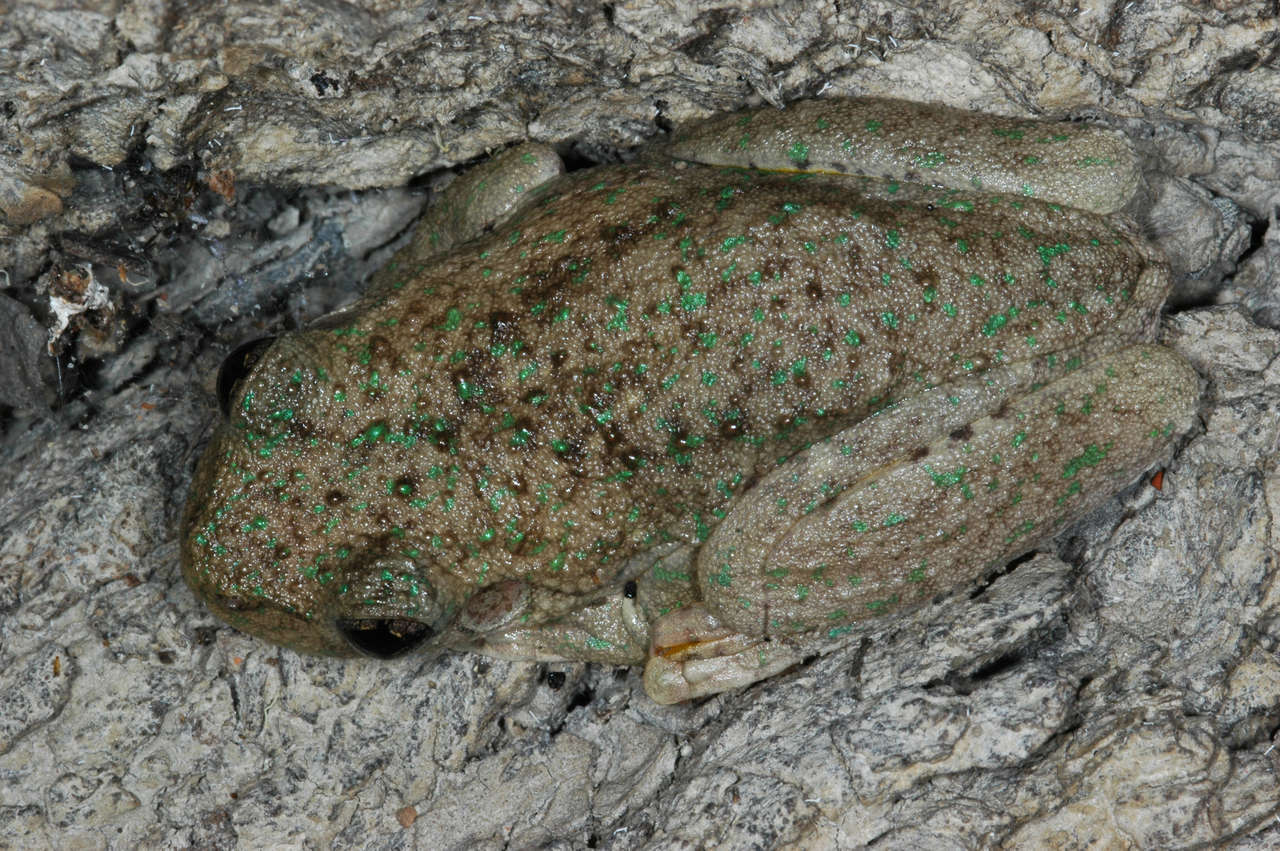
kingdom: Animalia
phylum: Chordata
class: Amphibia
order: Anura
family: Pelodryadidae
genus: Litoria
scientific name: Litoria peronii
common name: Emerald spotted treefrog
